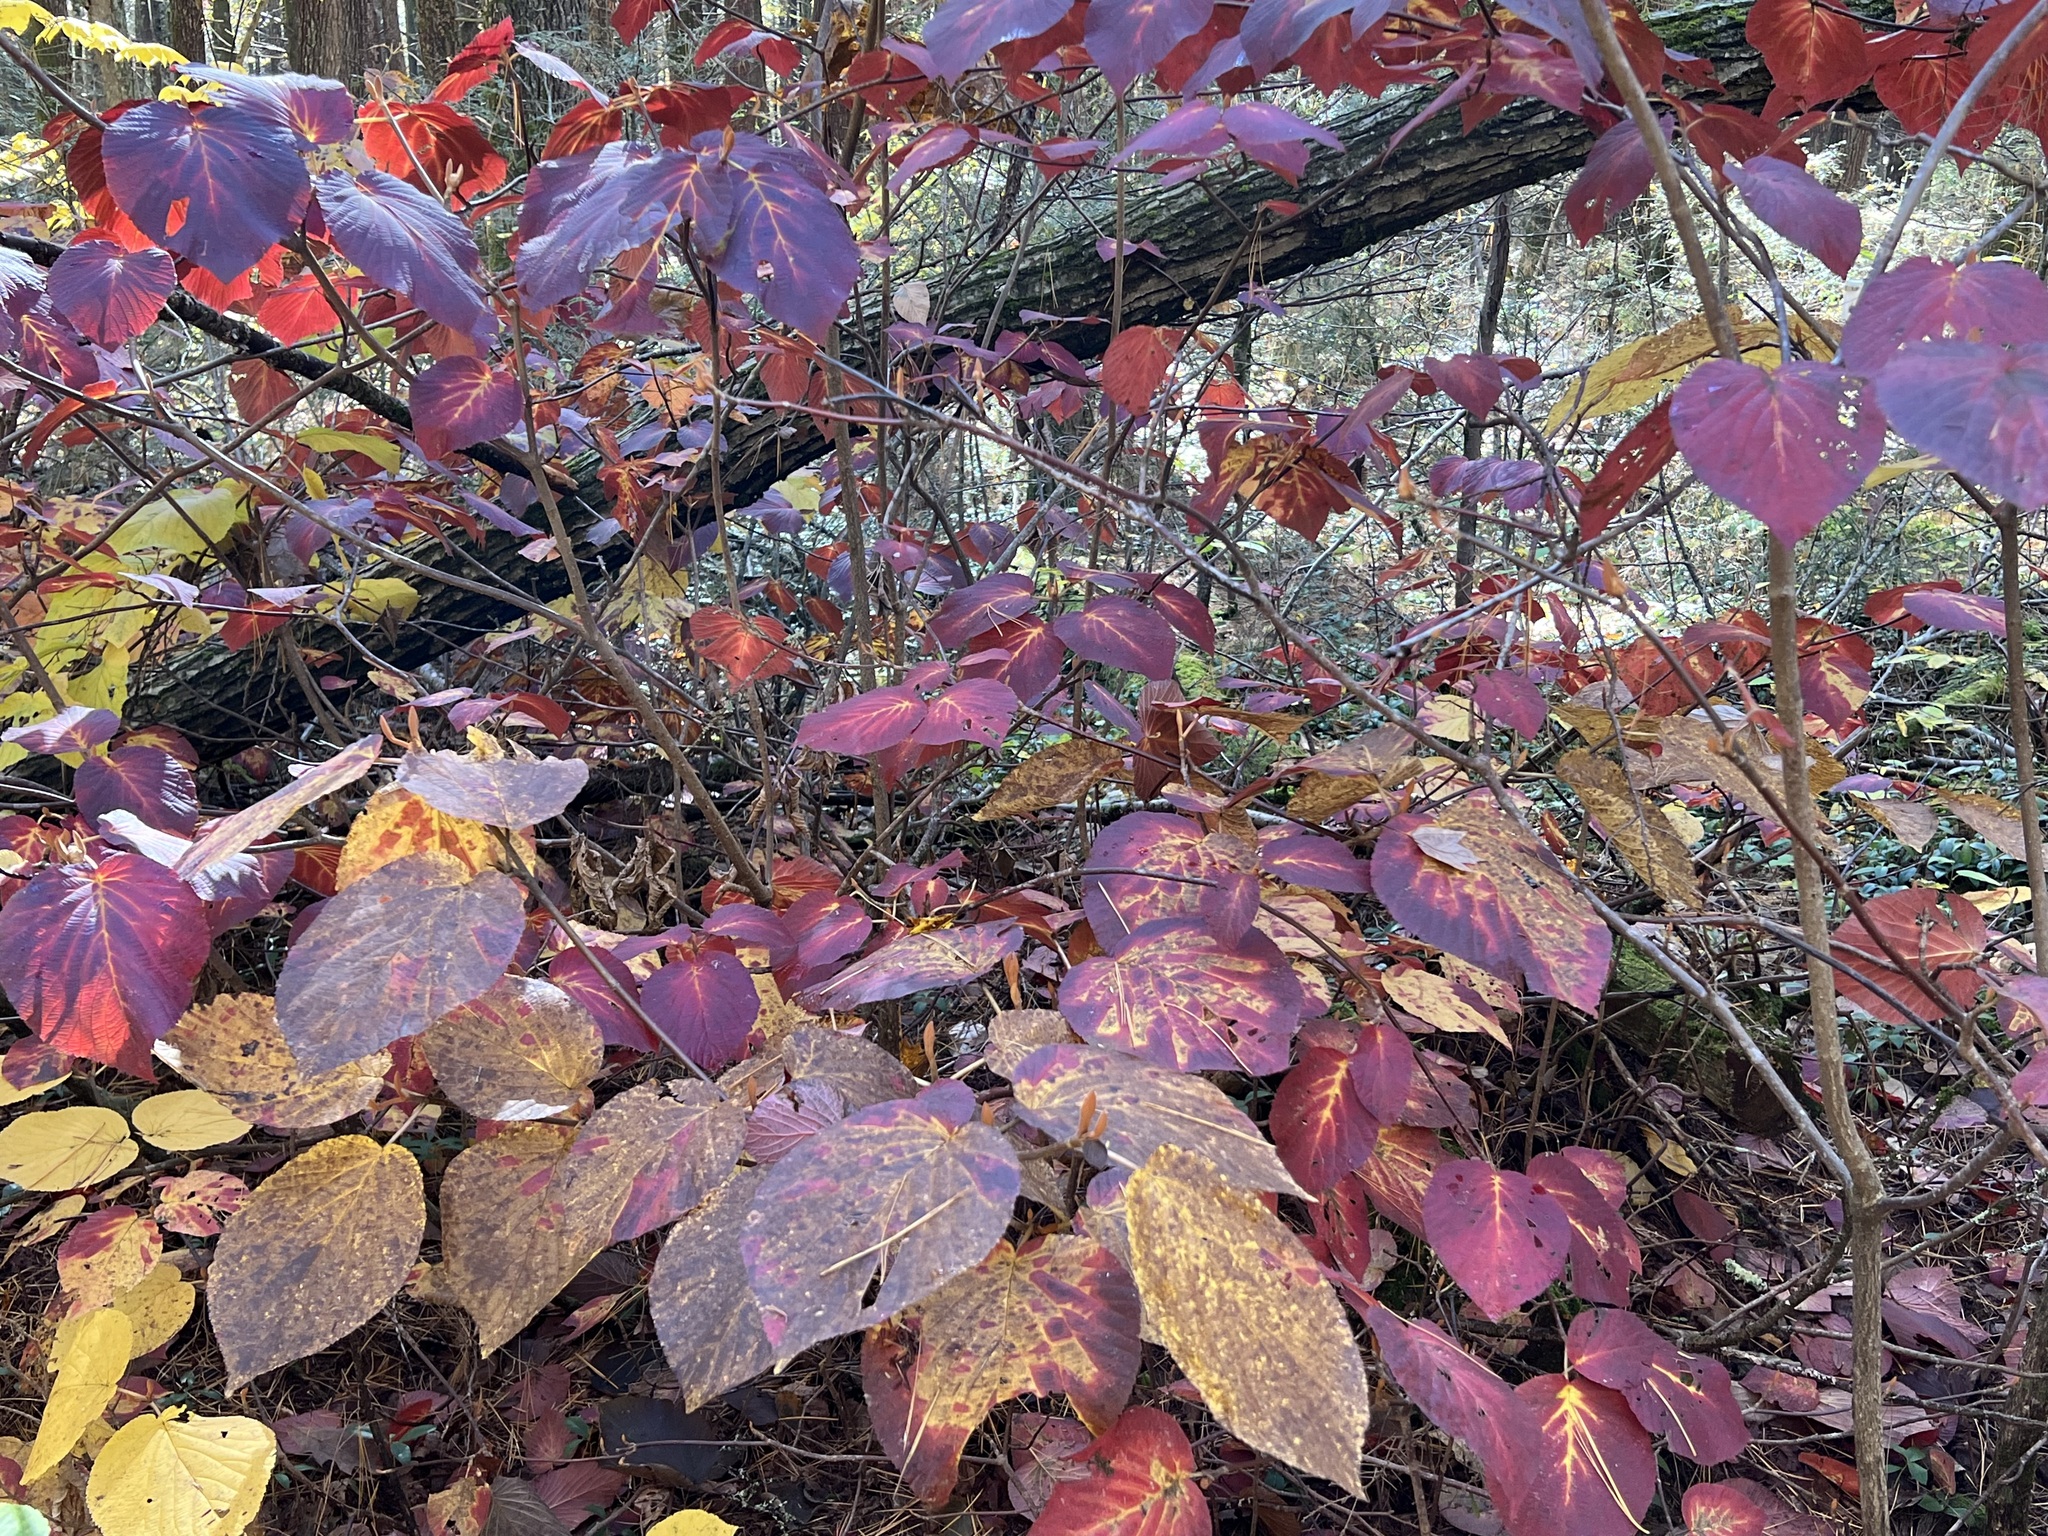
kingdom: Plantae
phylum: Tracheophyta
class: Magnoliopsida
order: Dipsacales
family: Viburnaceae
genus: Viburnum
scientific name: Viburnum lantanoides
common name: Hobblebush
